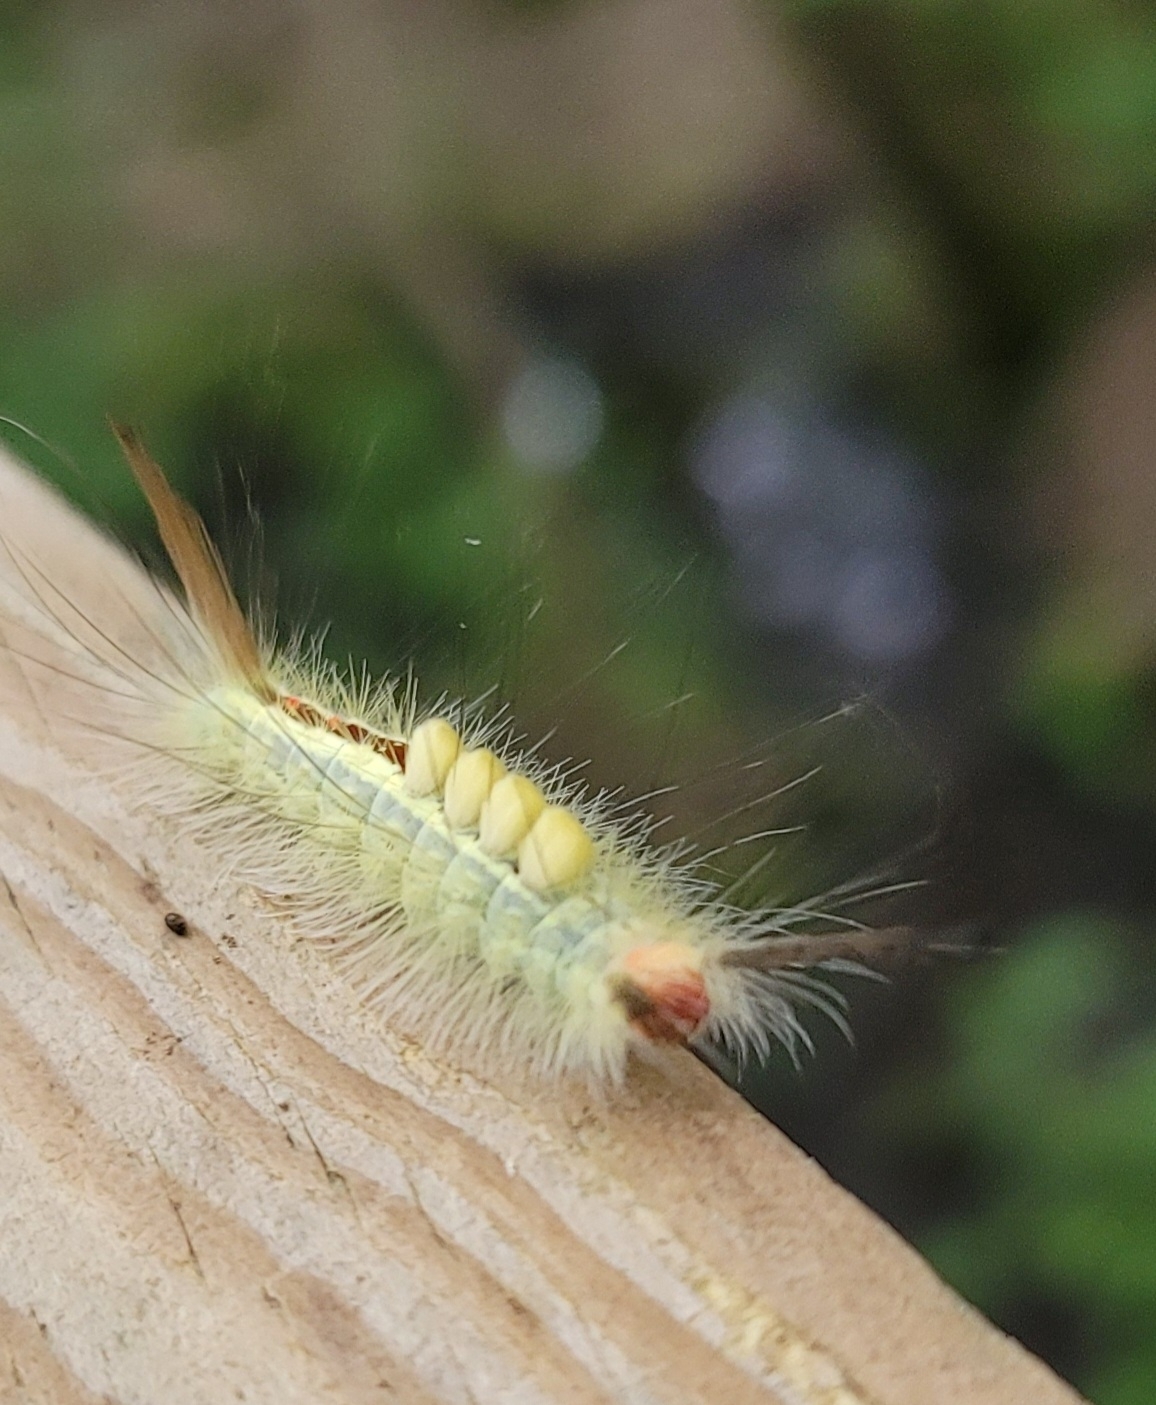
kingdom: Animalia
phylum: Arthropoda
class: Insecta
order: Lepidoptera
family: Erebidae
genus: Orgyia
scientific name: Orgyia leucostigma
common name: White-marked tussock moth
